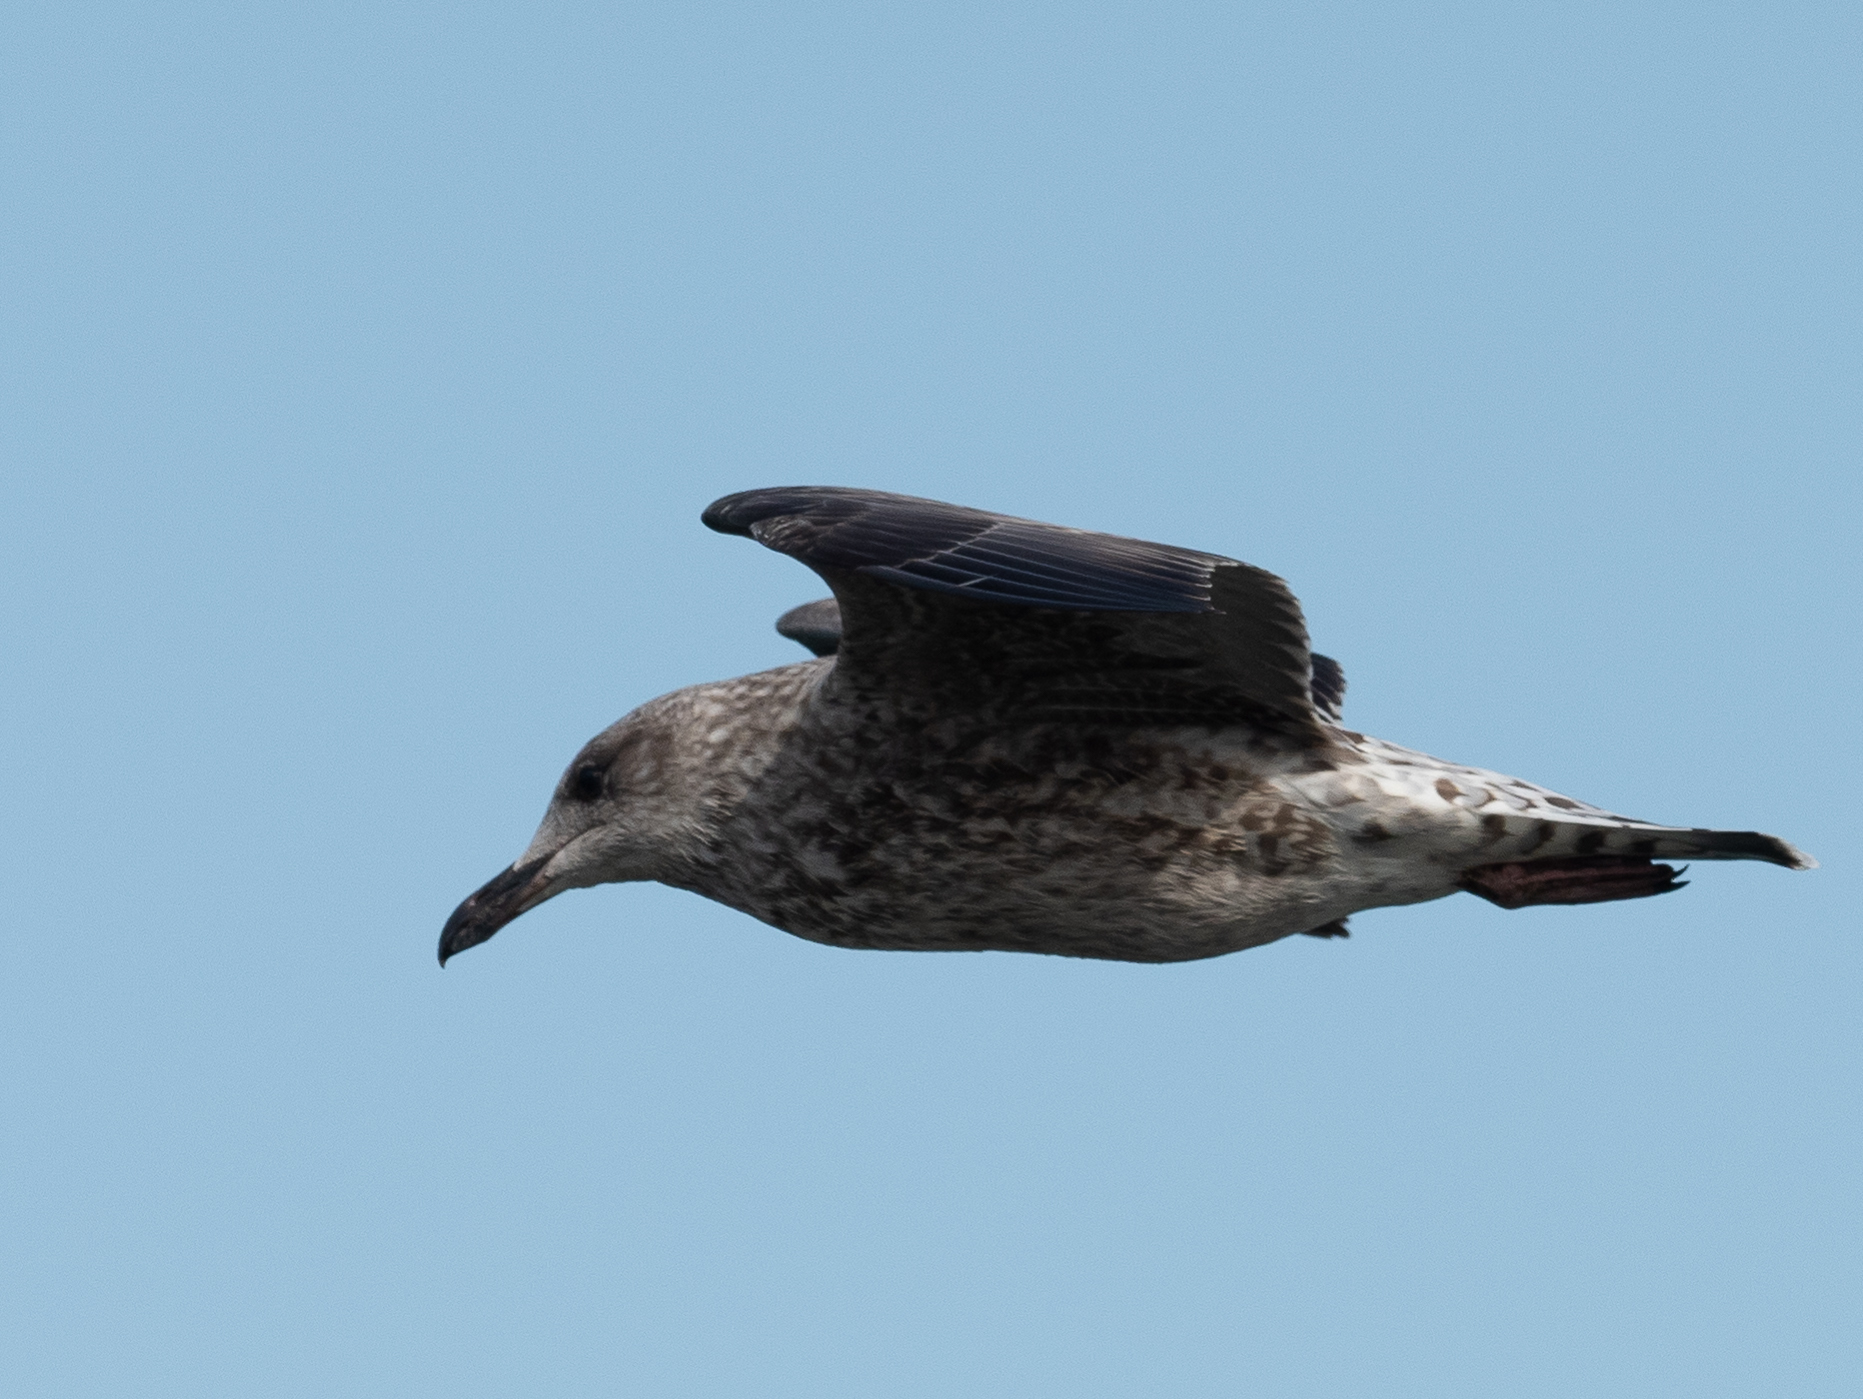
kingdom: Animalia
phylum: Chordata
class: Aves
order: Charadriiformes
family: Laridae
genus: Larus
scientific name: Larus argentatus
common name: Herring gull
